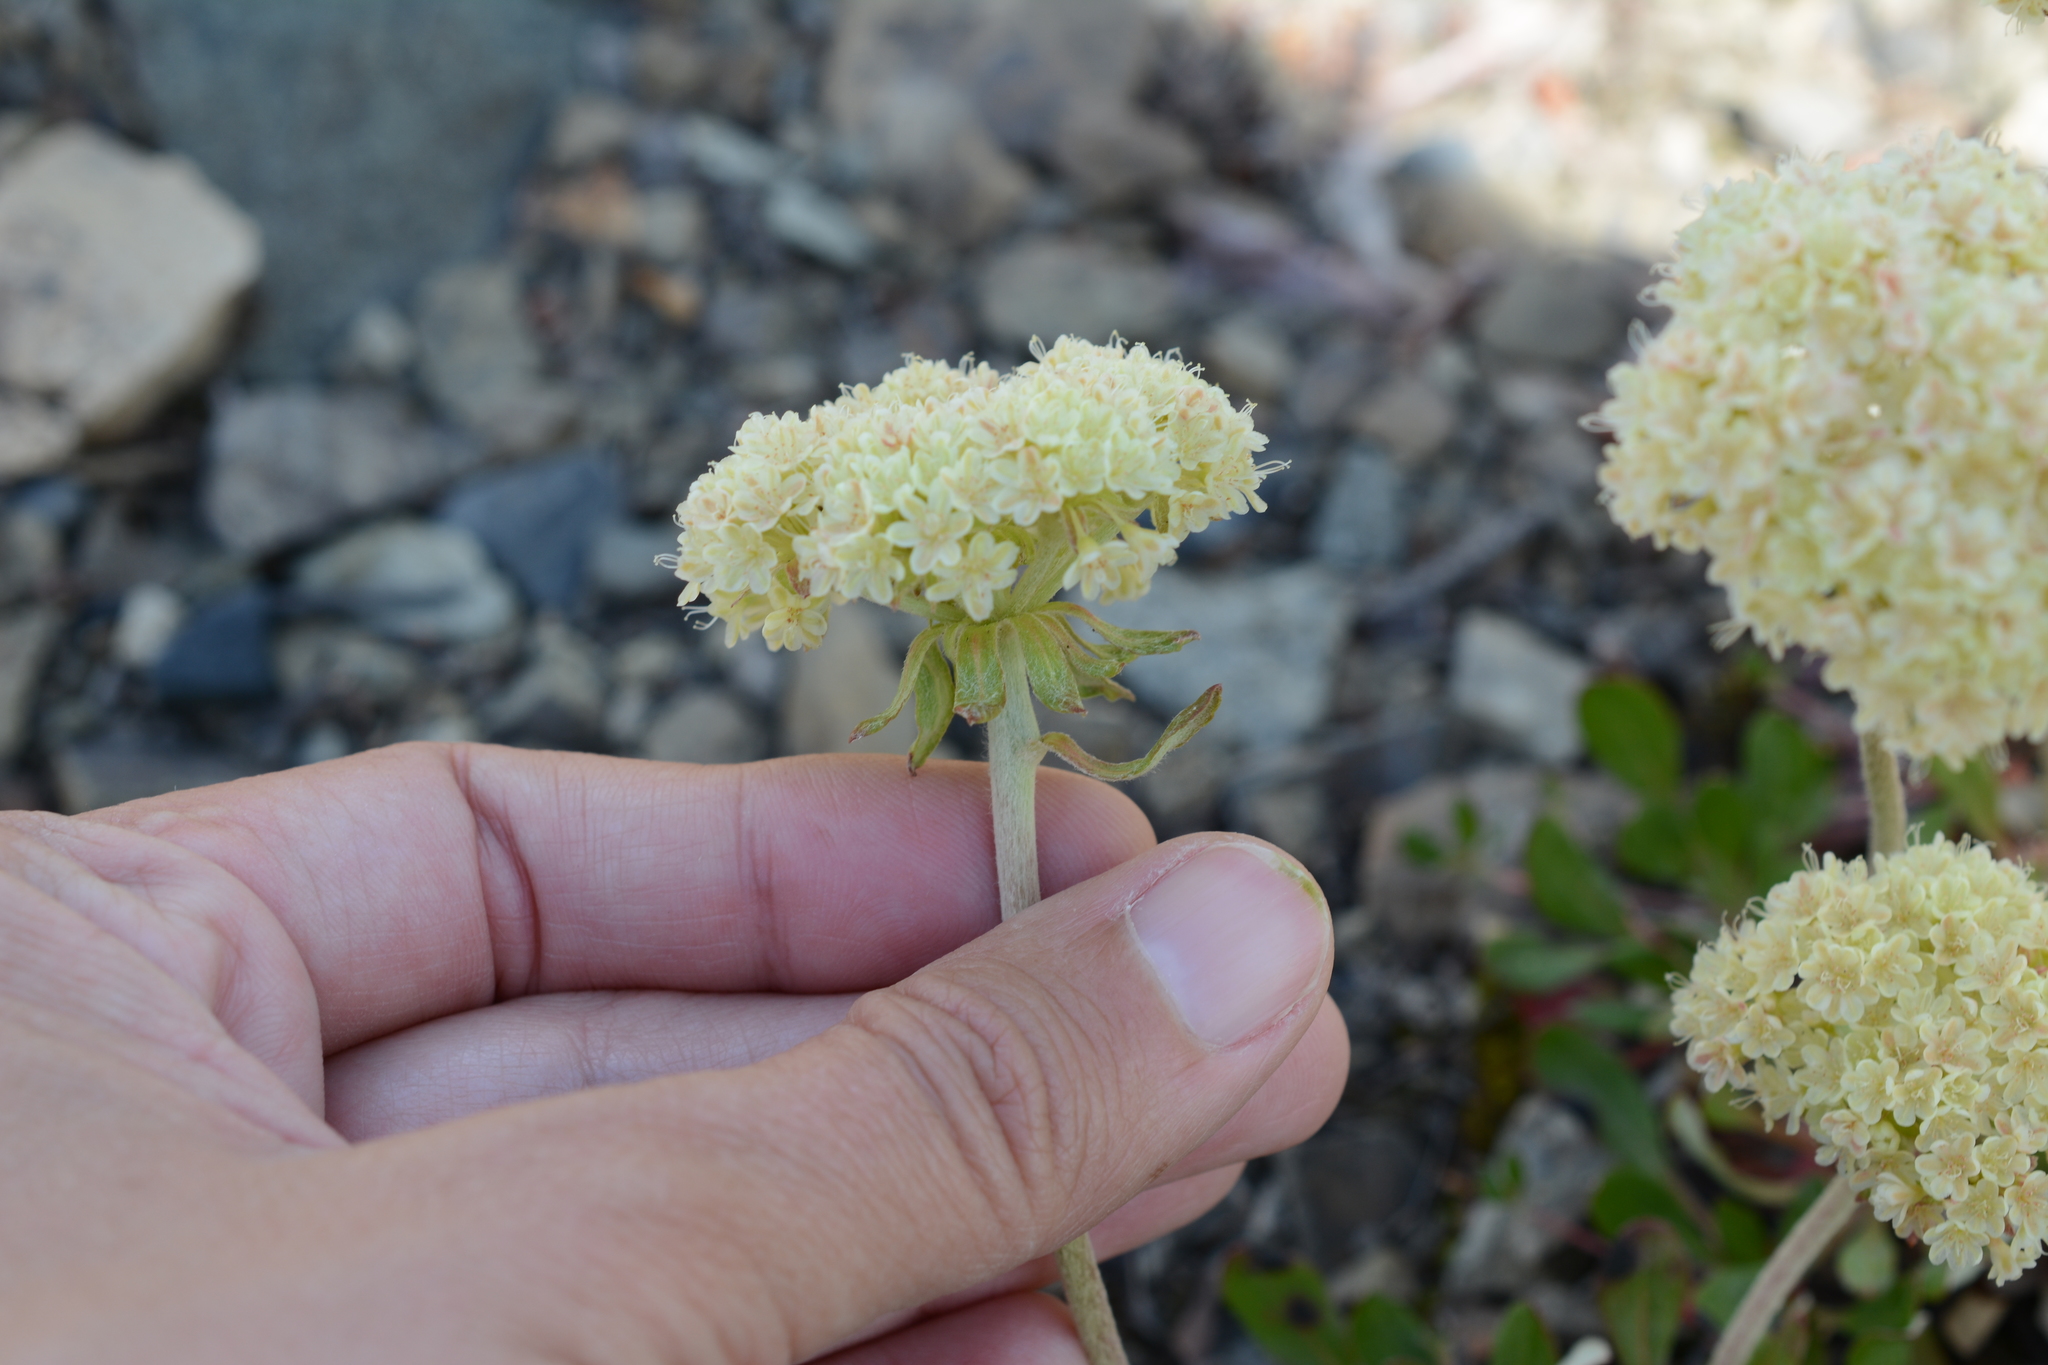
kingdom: Plantae
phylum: Tracheophyta
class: Magnoliopsida
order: Caryophyllales
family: Polygonaceae
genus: Eriogonum
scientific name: Eriogonum umbellatum
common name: Sulfur-buckwheat
